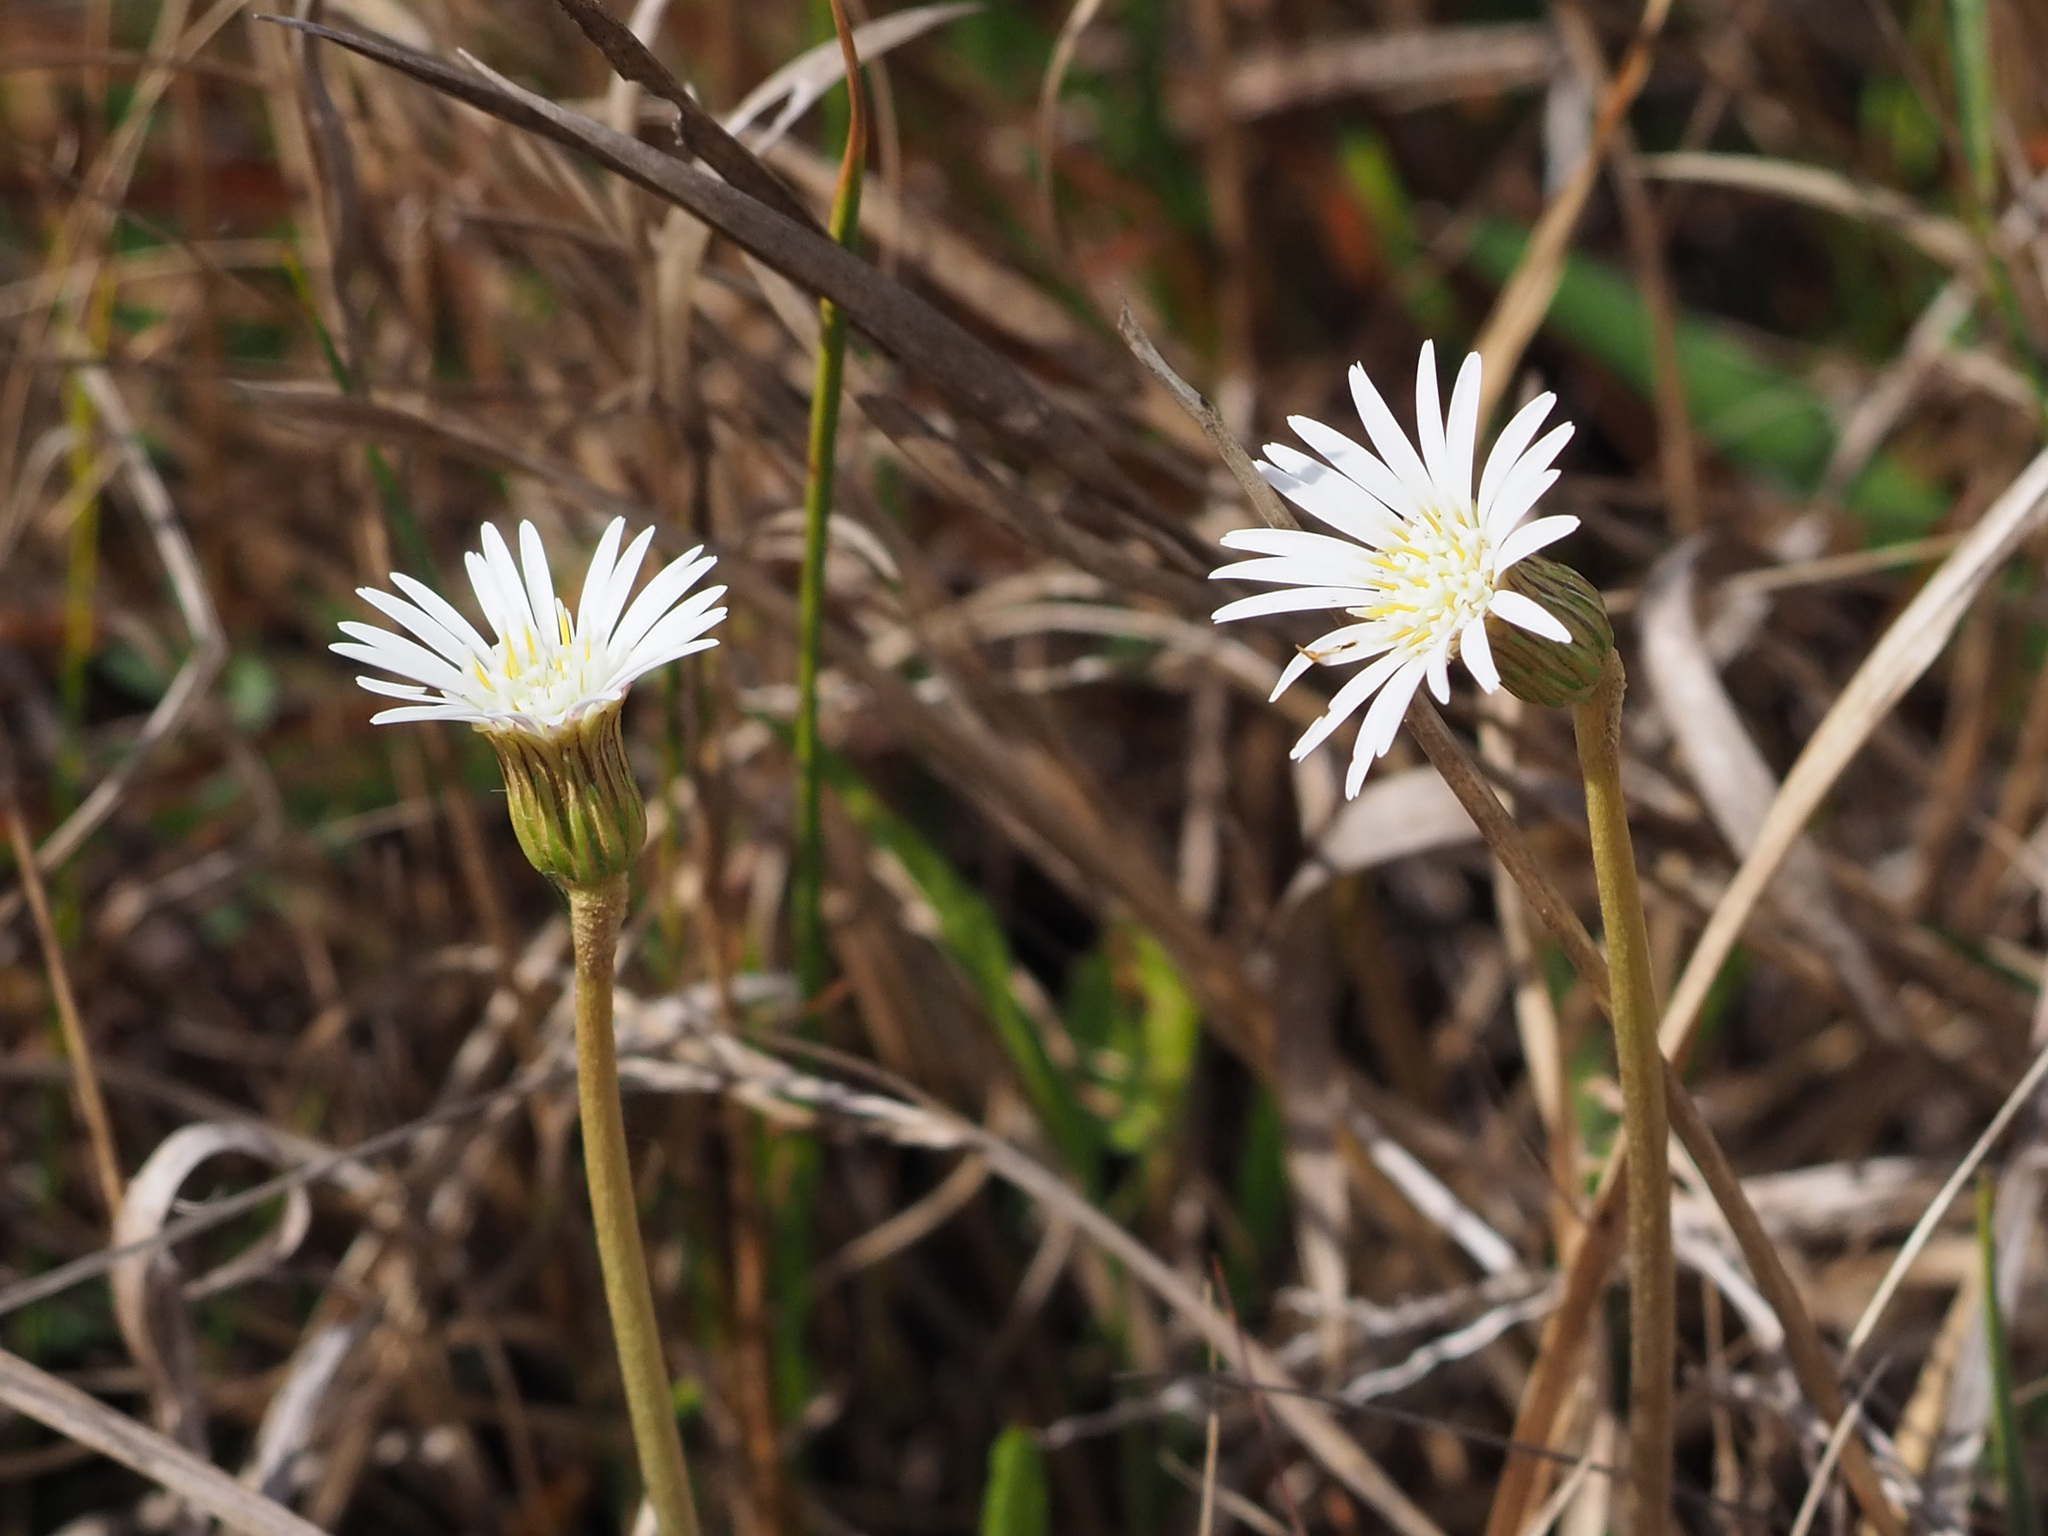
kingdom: Plantae
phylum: Tracheophyta
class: Magnoliopsida
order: Asterales
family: Asteraceae
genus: Chaptalia
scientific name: Chaptalia tomentosa
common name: Woolly sunbonnet
